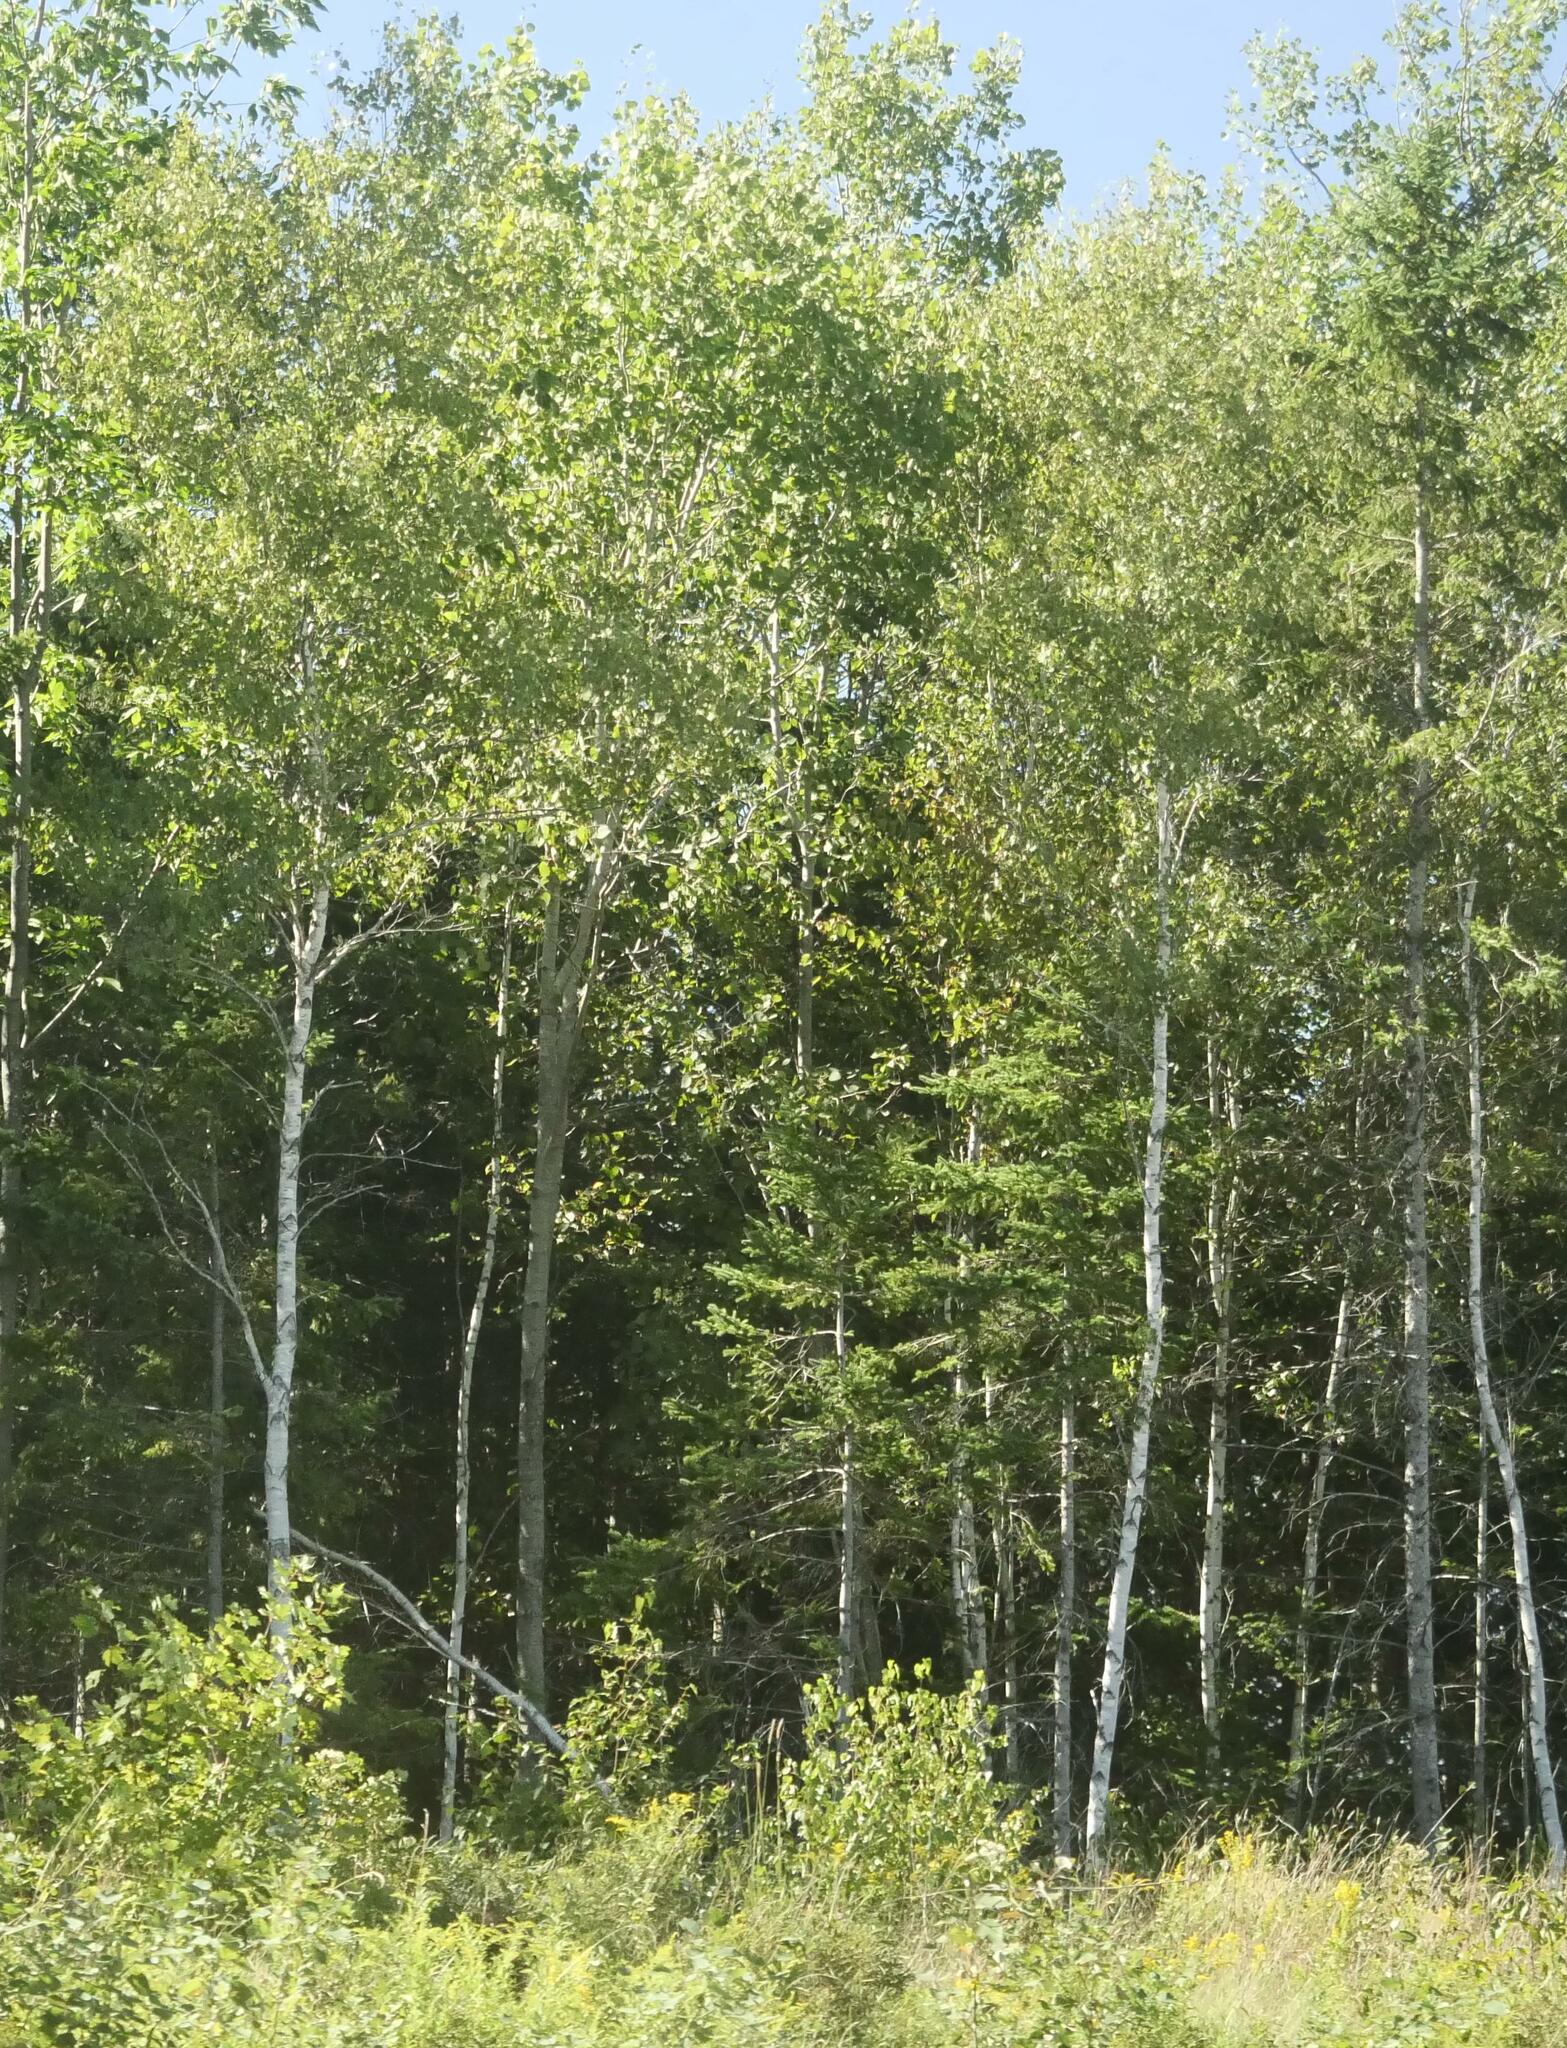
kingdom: Plantae
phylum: Tracheophyta
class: Magnoliopsida
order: Malpighiales
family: Salicaceae
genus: Populus
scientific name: Populus tremuloides
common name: Quaking aspen
